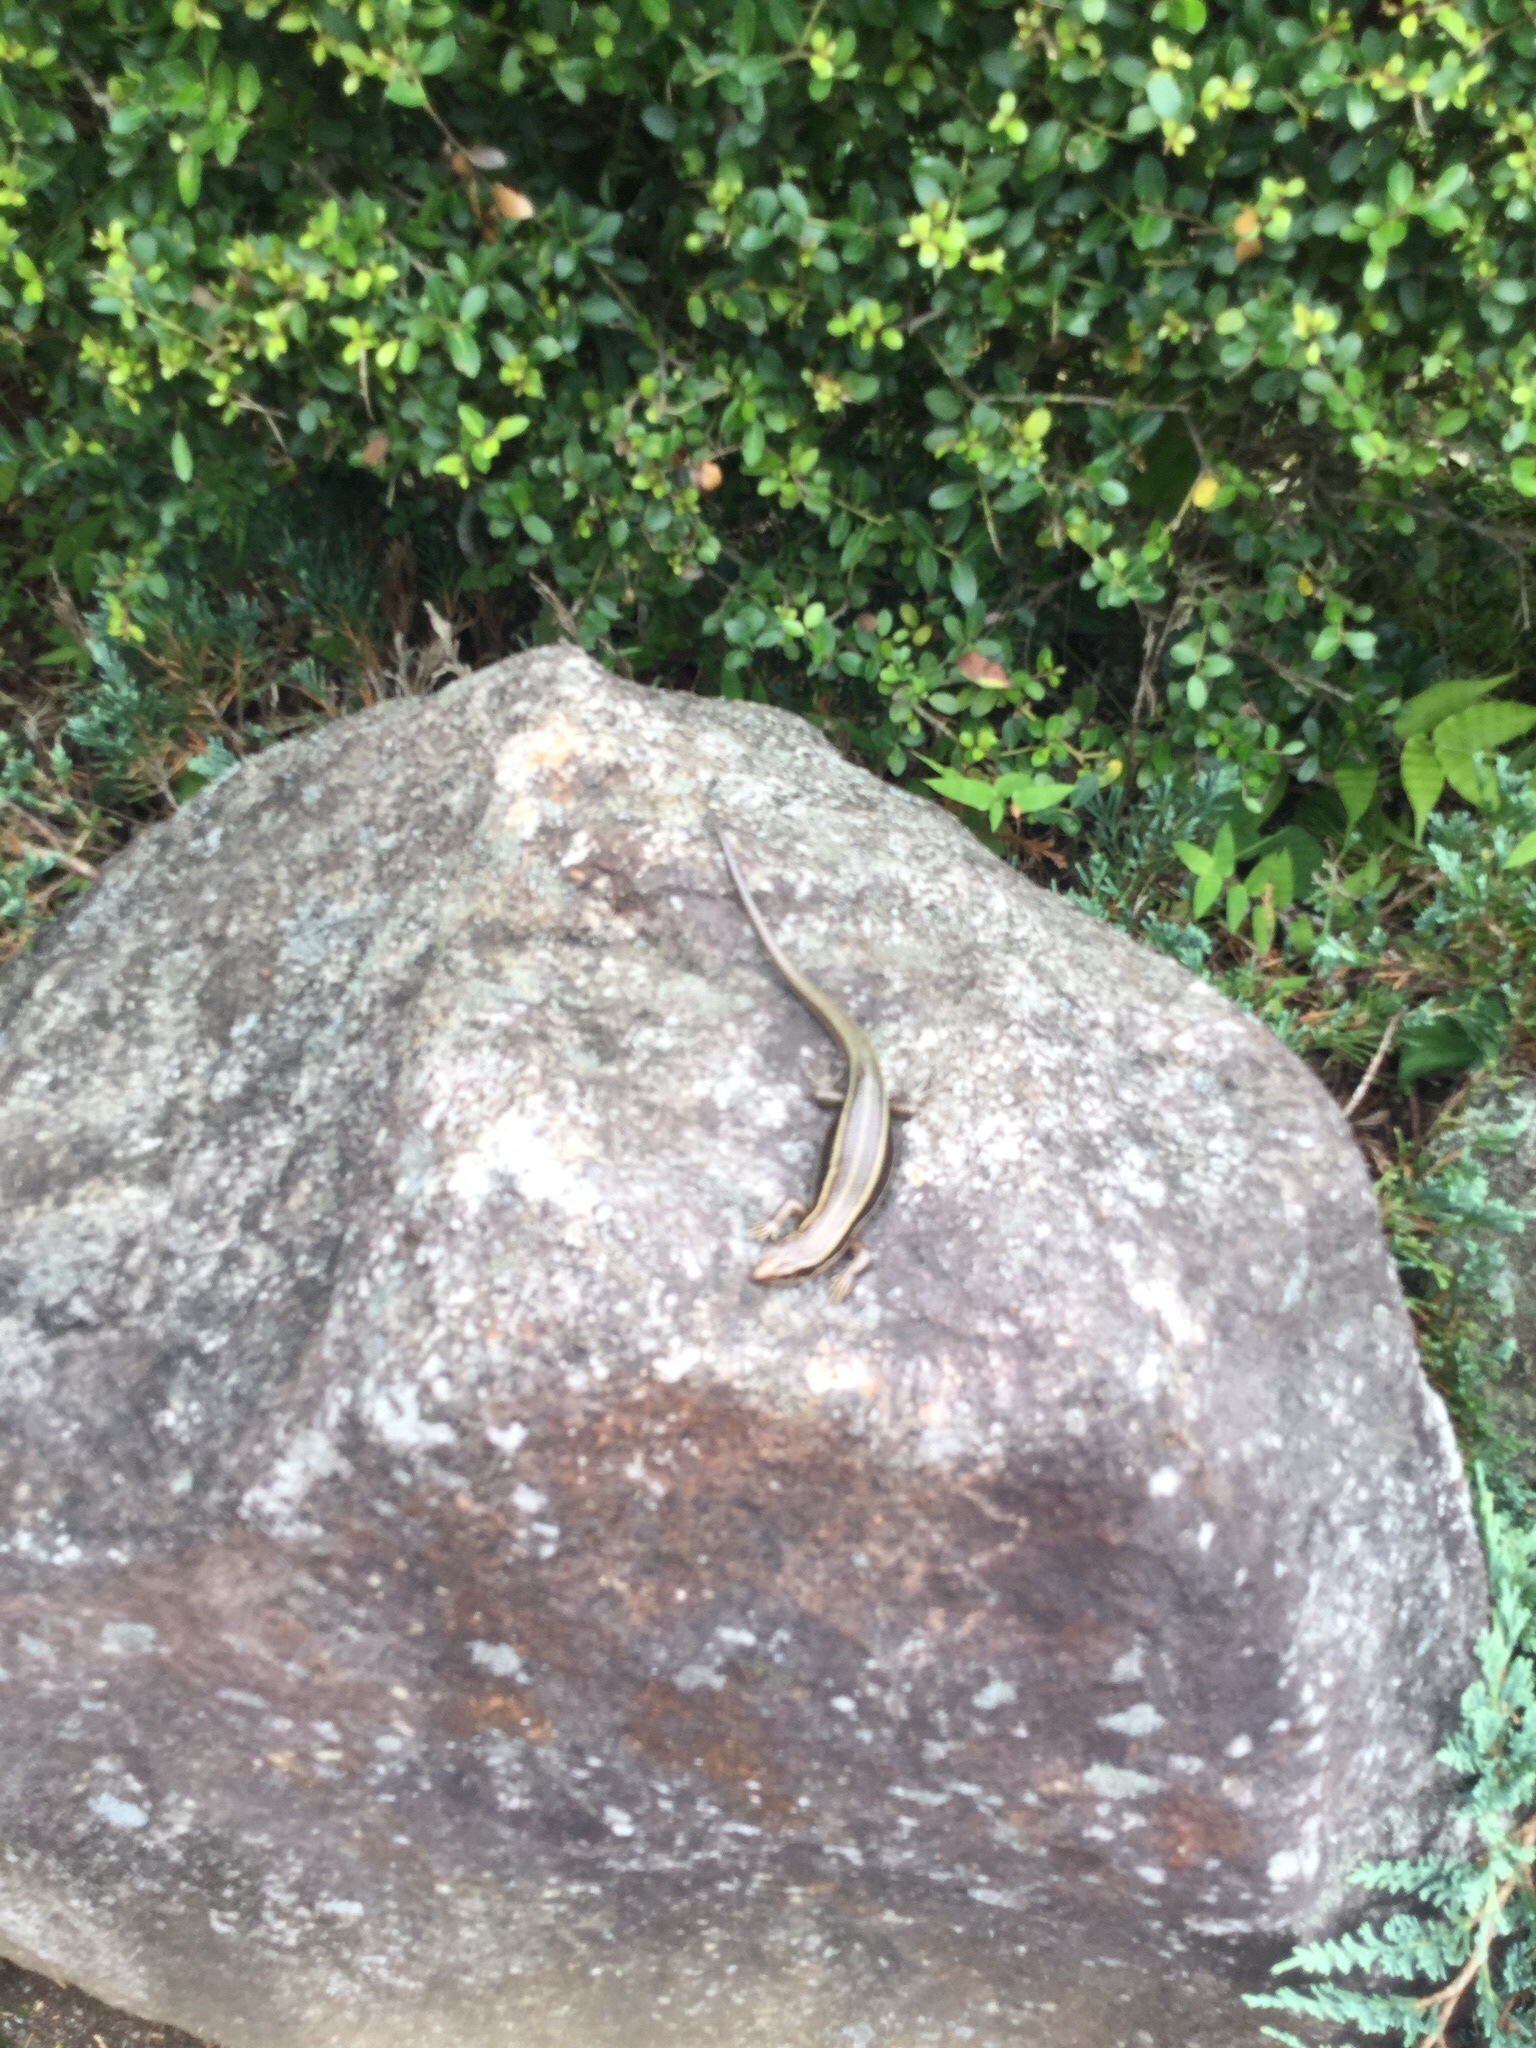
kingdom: Animalia
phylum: Chordata
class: Squamata
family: Scincidae
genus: Plestiodon
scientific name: Plestiodon finitimus
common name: Far eastern skink
